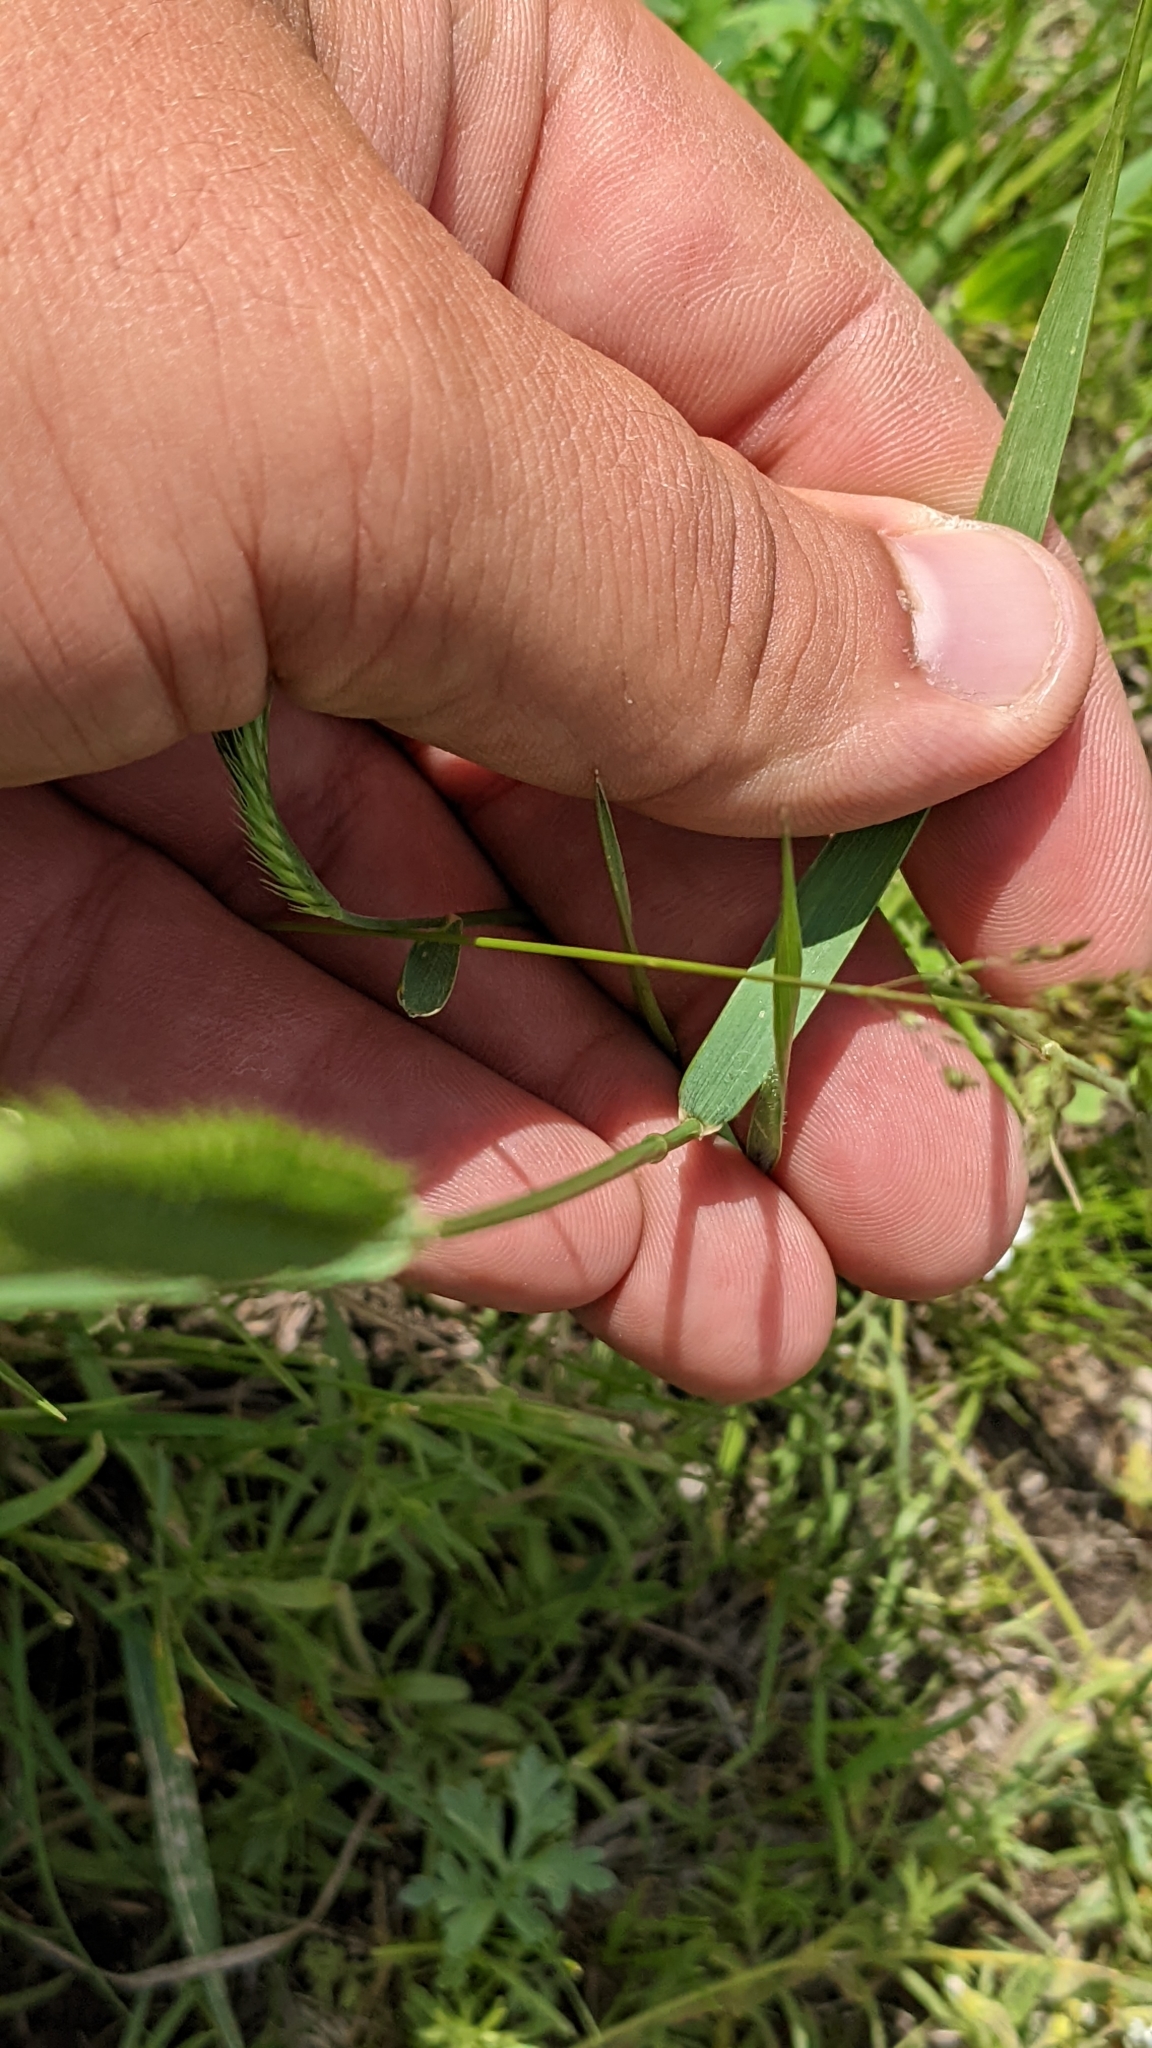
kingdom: Plantae
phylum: Tracheophyta
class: Liliopsida
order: Poales
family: Poaceae
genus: Agropyron
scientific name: Agropyron cristatum
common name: Crested wheatgrass
